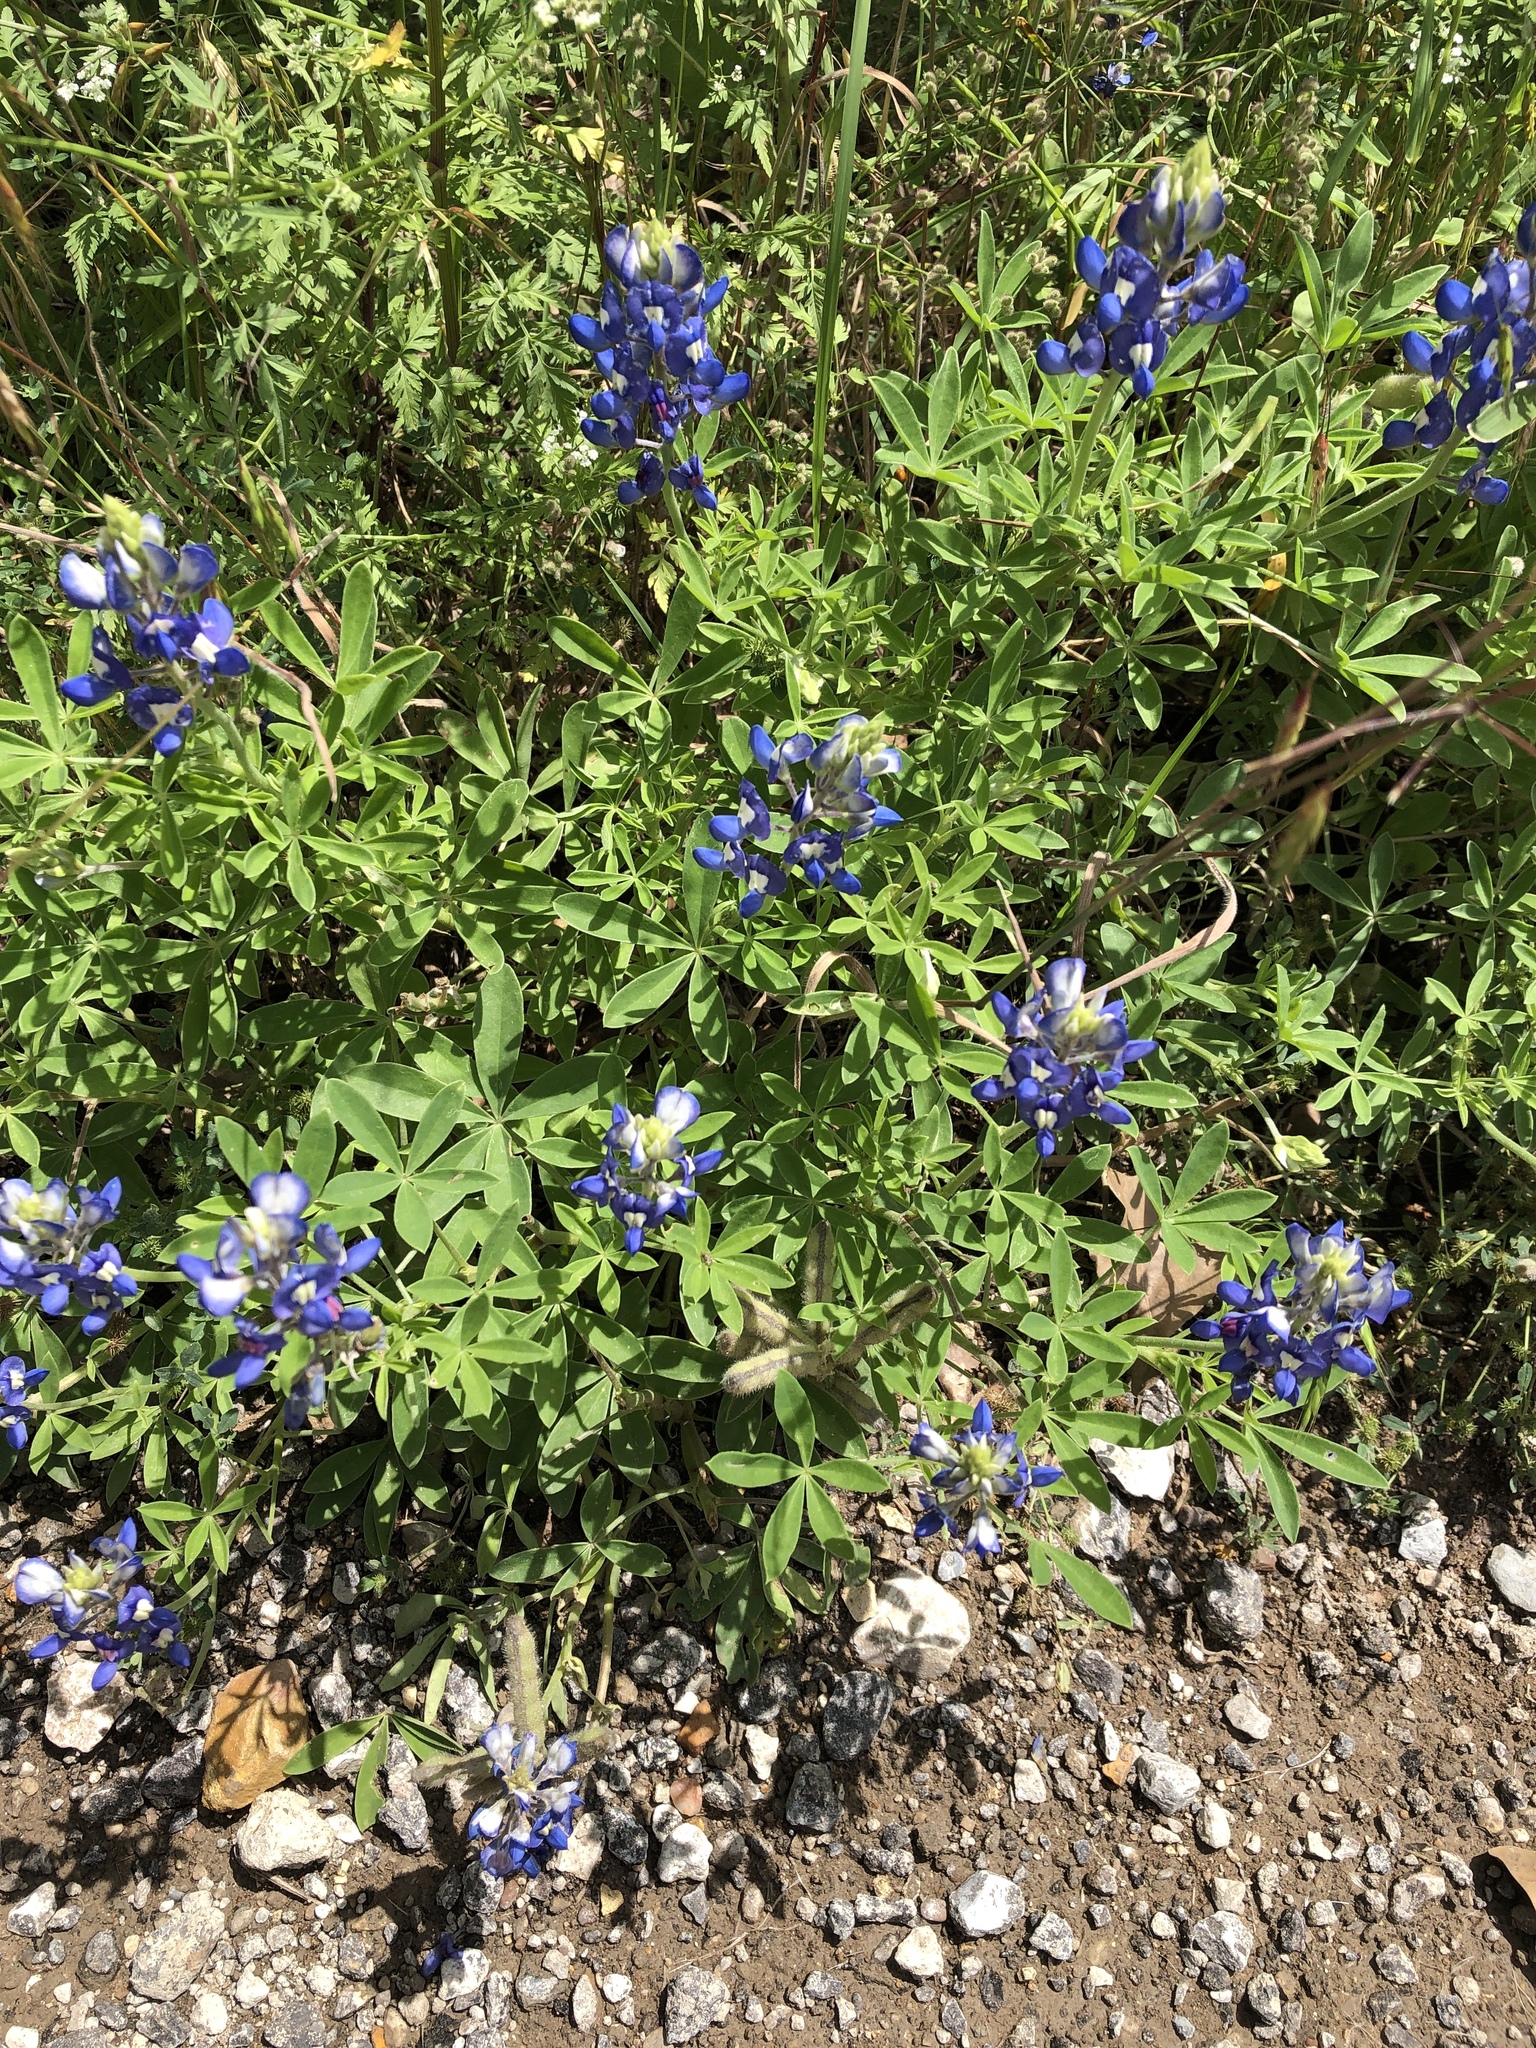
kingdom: Plantae
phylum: Tracheophyta
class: Magnoliopsida
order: Fabales
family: Fabaceae
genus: Lupinus
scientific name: Lupinus texensis
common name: Texas bluebonnet
